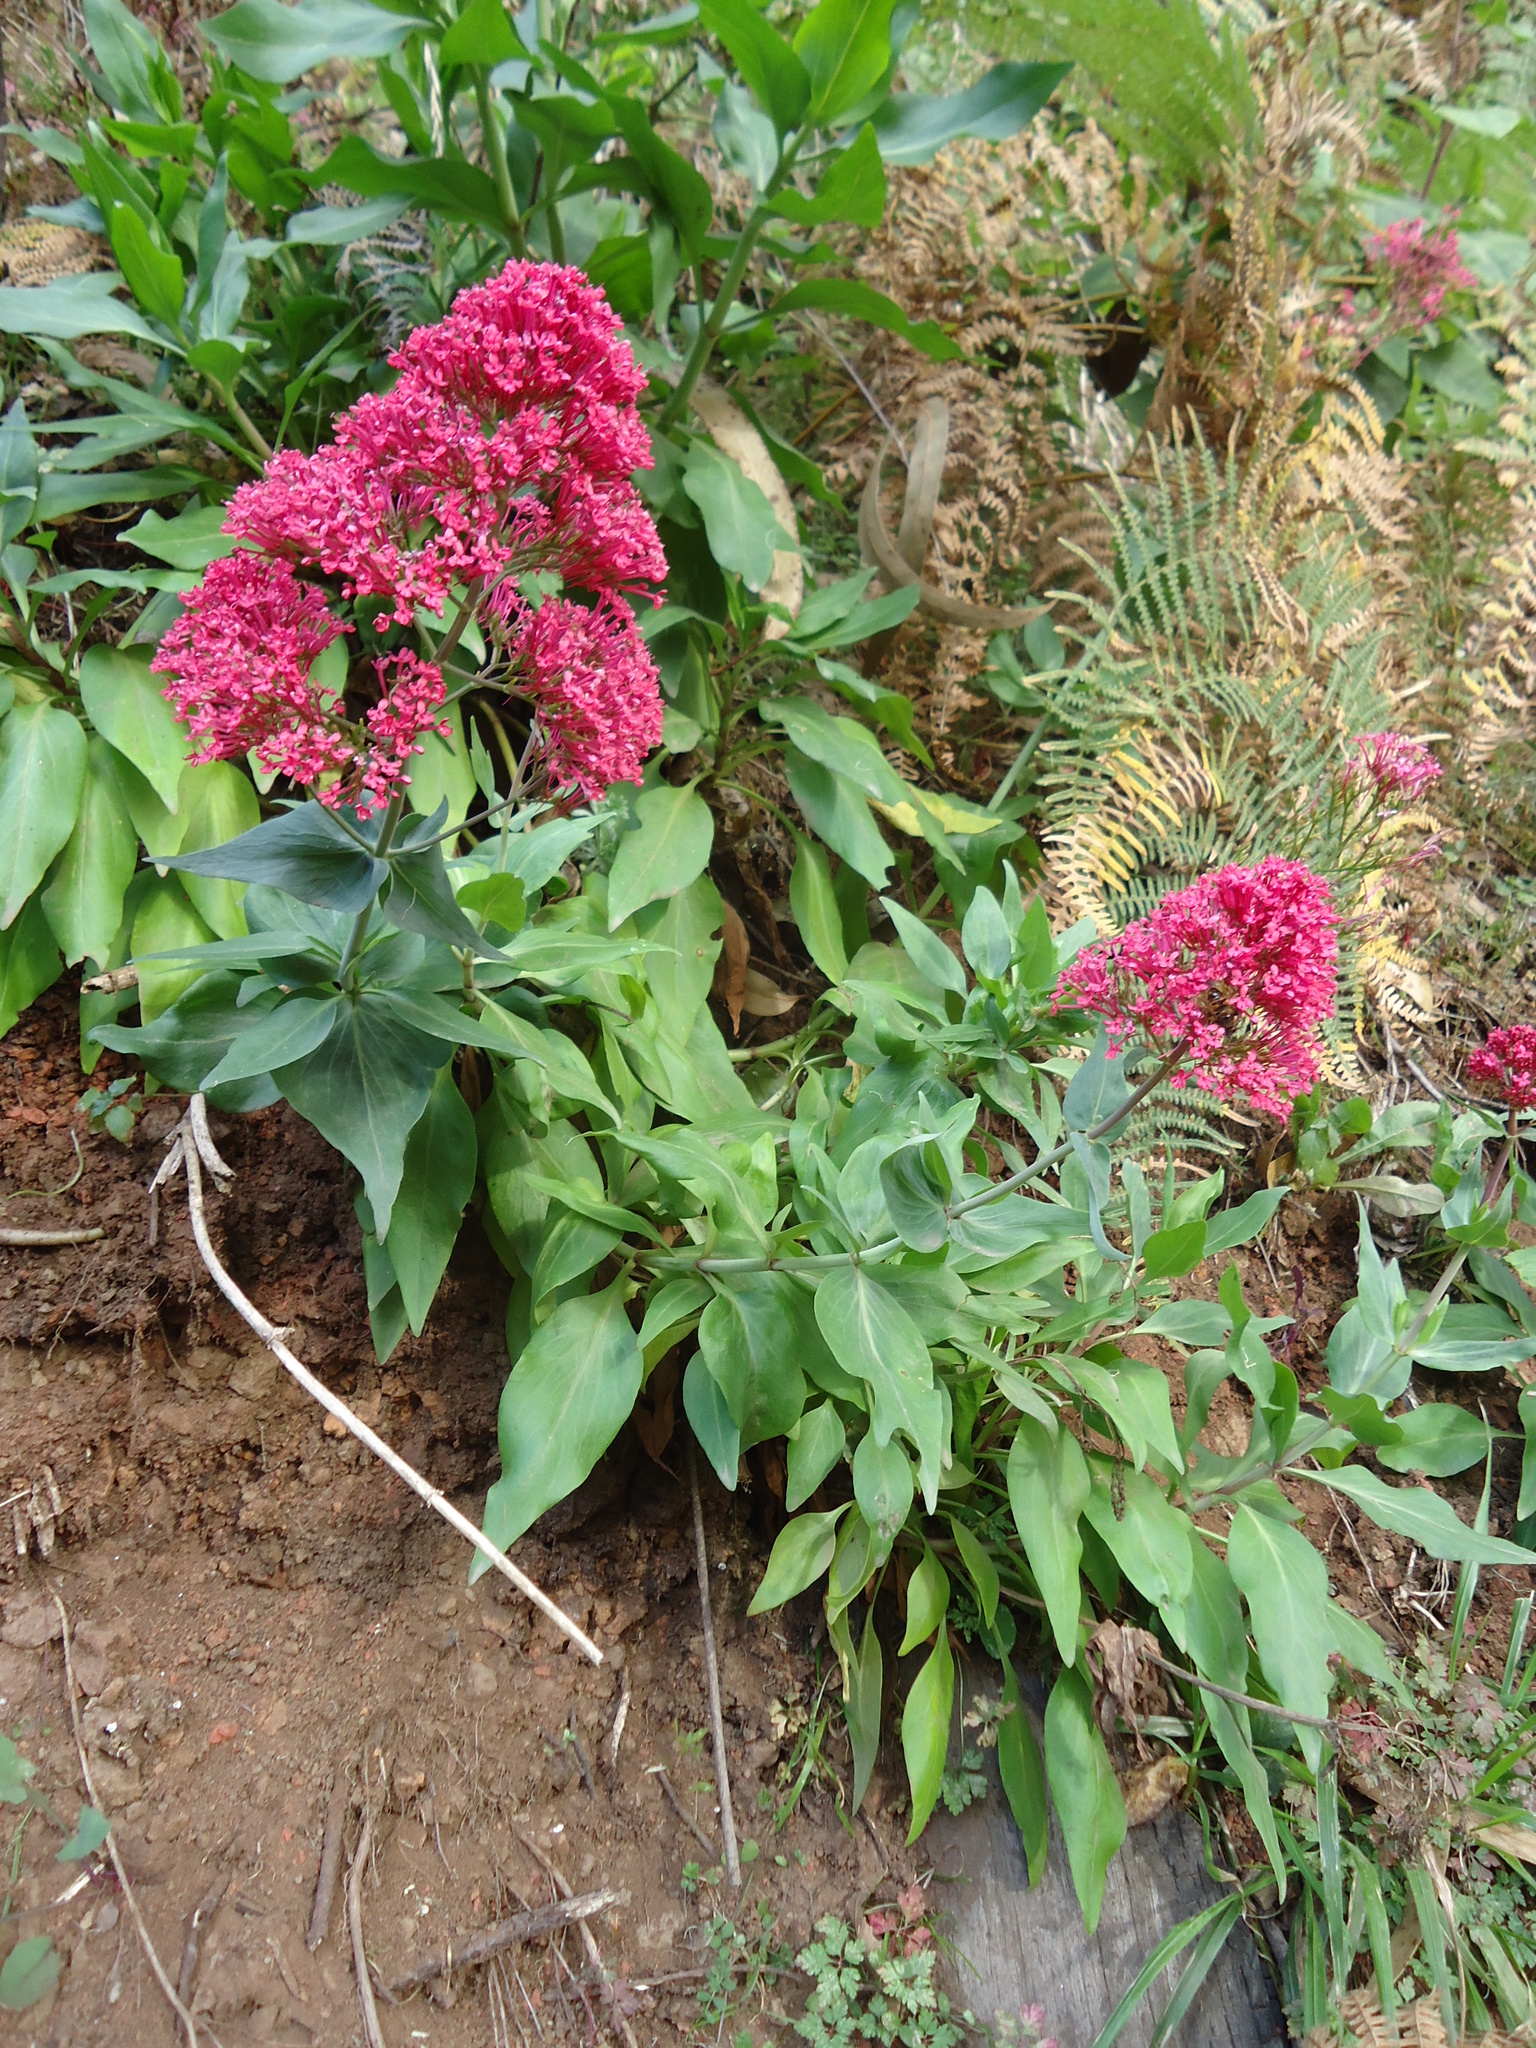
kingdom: Plantae
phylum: Tracheophyta
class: Magnoliopsida
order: Dipsacales
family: Caprifoliaceae
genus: Centranthus
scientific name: Centranthus ruber
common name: Red valerian
